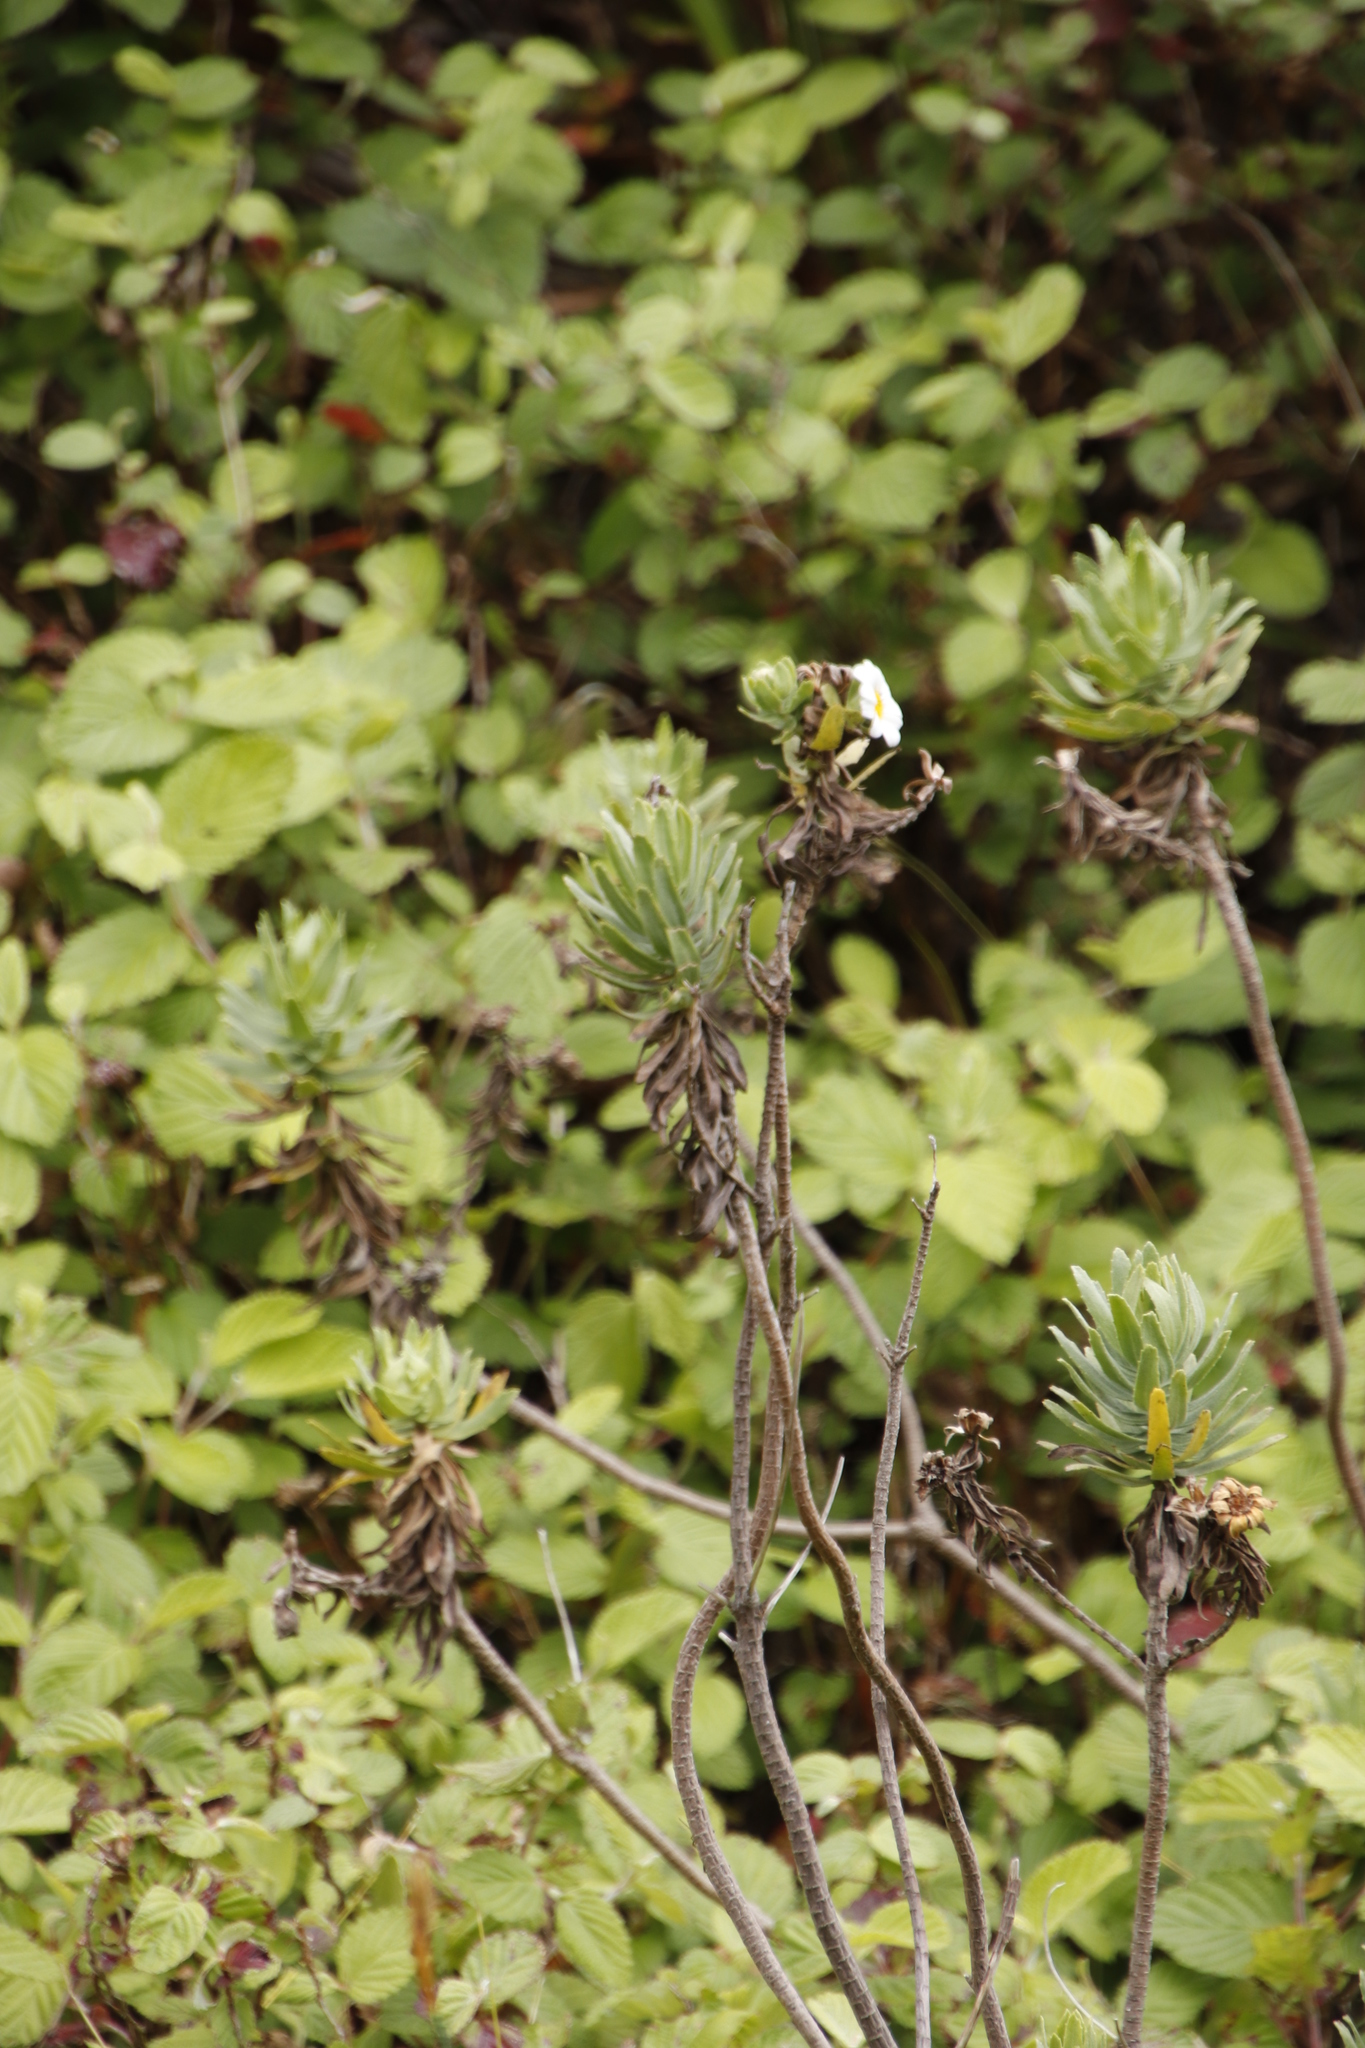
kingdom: Plantae
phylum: Tracheophyta
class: Magnoliopsida
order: Asterales
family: Asteraceae
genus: Osmitopsis
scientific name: Osmitopsis asteriscoides
